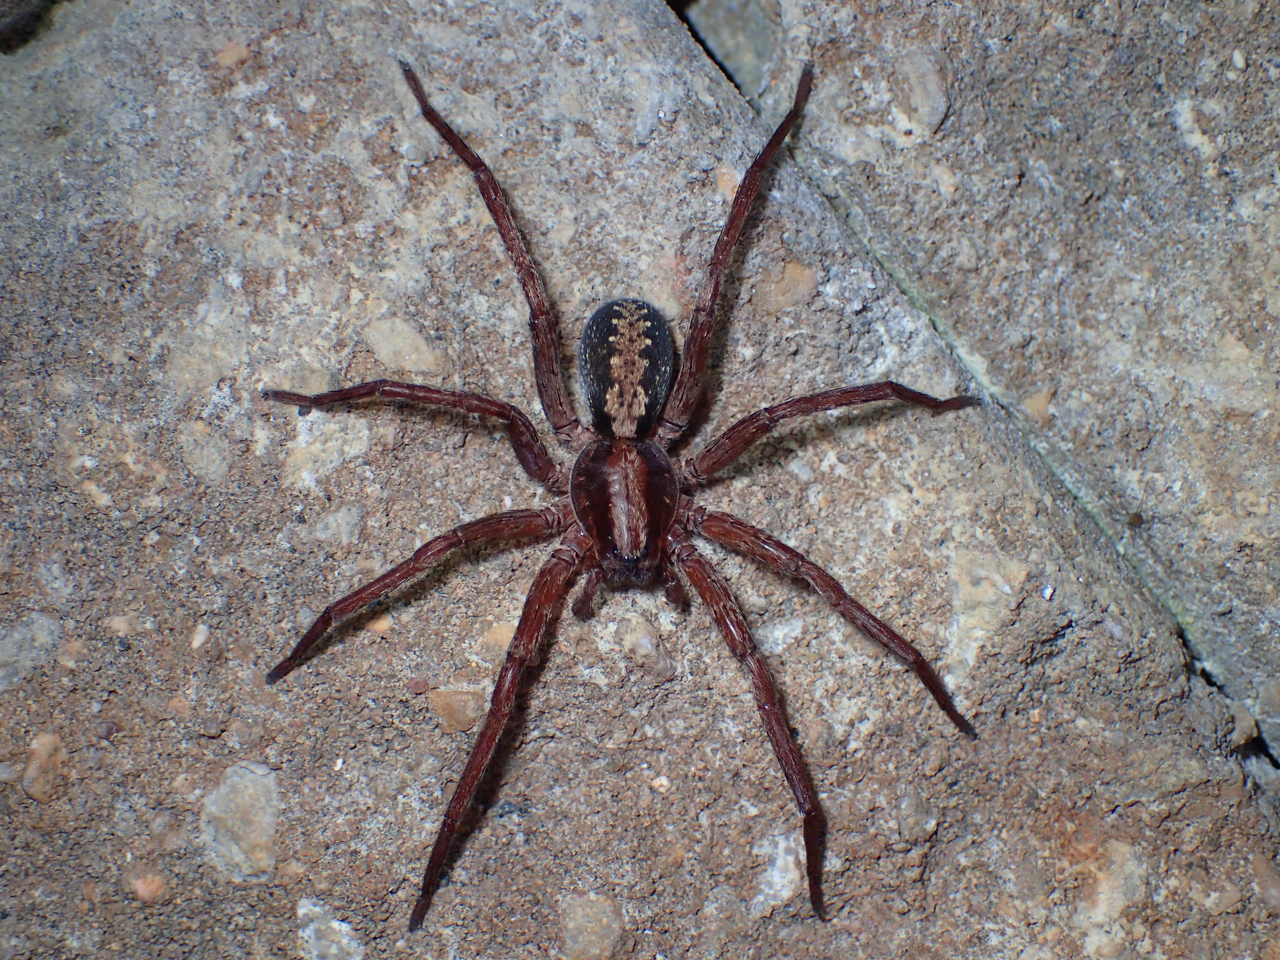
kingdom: Animalia
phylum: Arthropoda
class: Arachnida
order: Araneae
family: Ctenidae
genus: Ctenus
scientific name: Ctenus hibernalis
